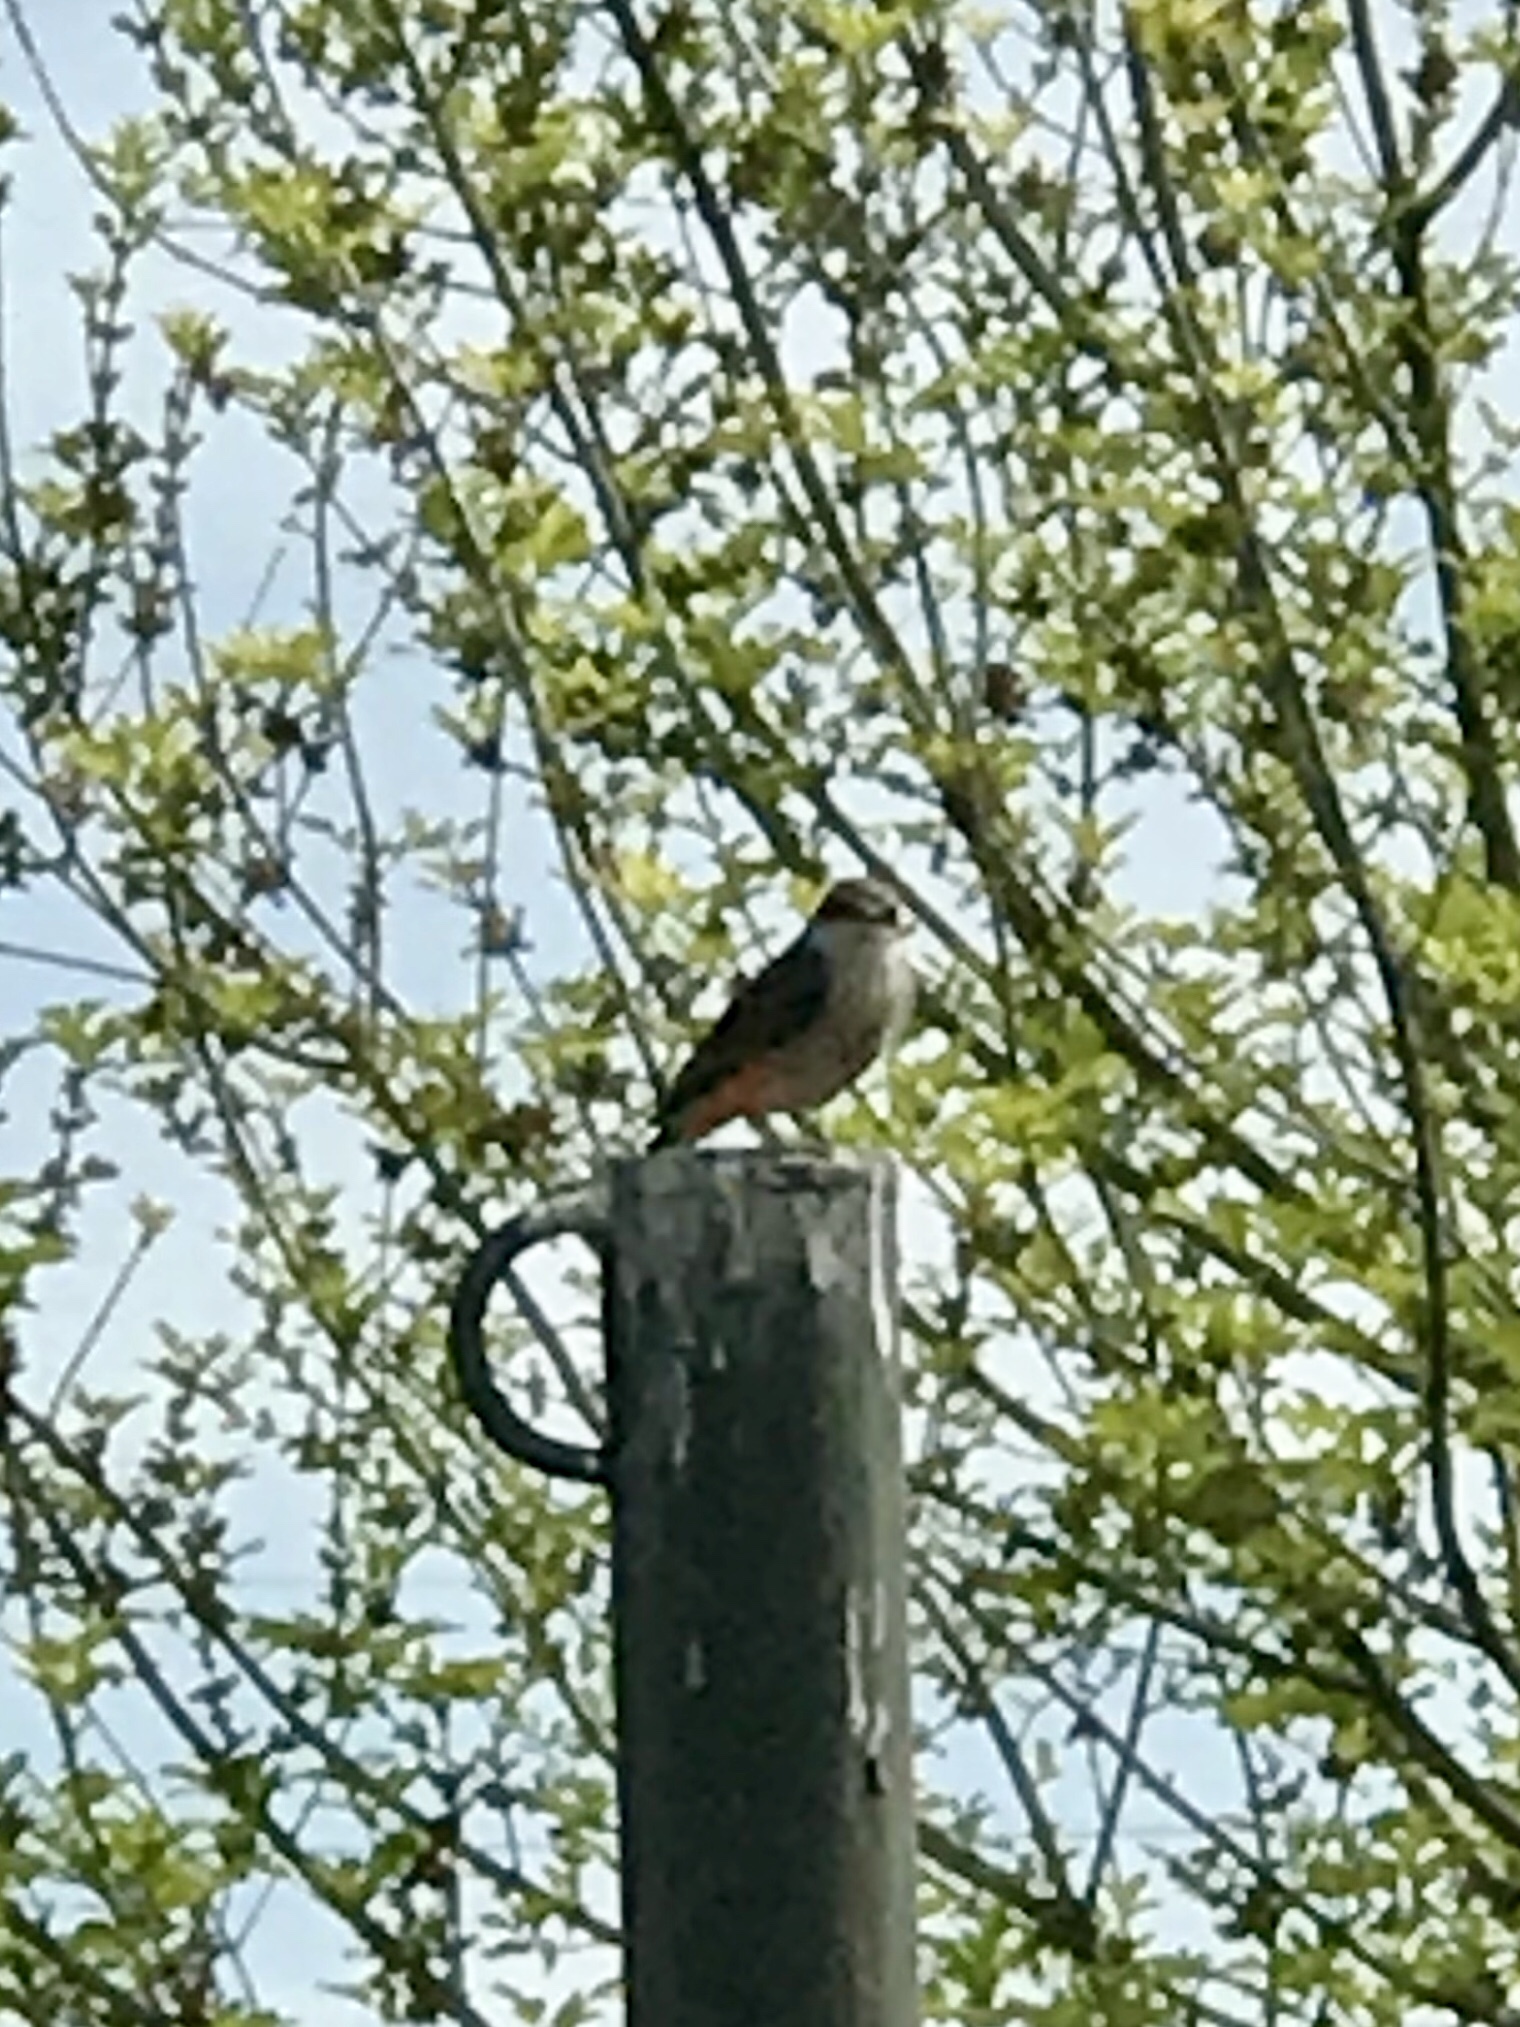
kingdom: Animalia
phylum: Chordata
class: Aves
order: Passeriformes
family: Tyrannidae
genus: Pyrocephalus
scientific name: Pyrocephalus rubinus
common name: Vermilion flycatcher
